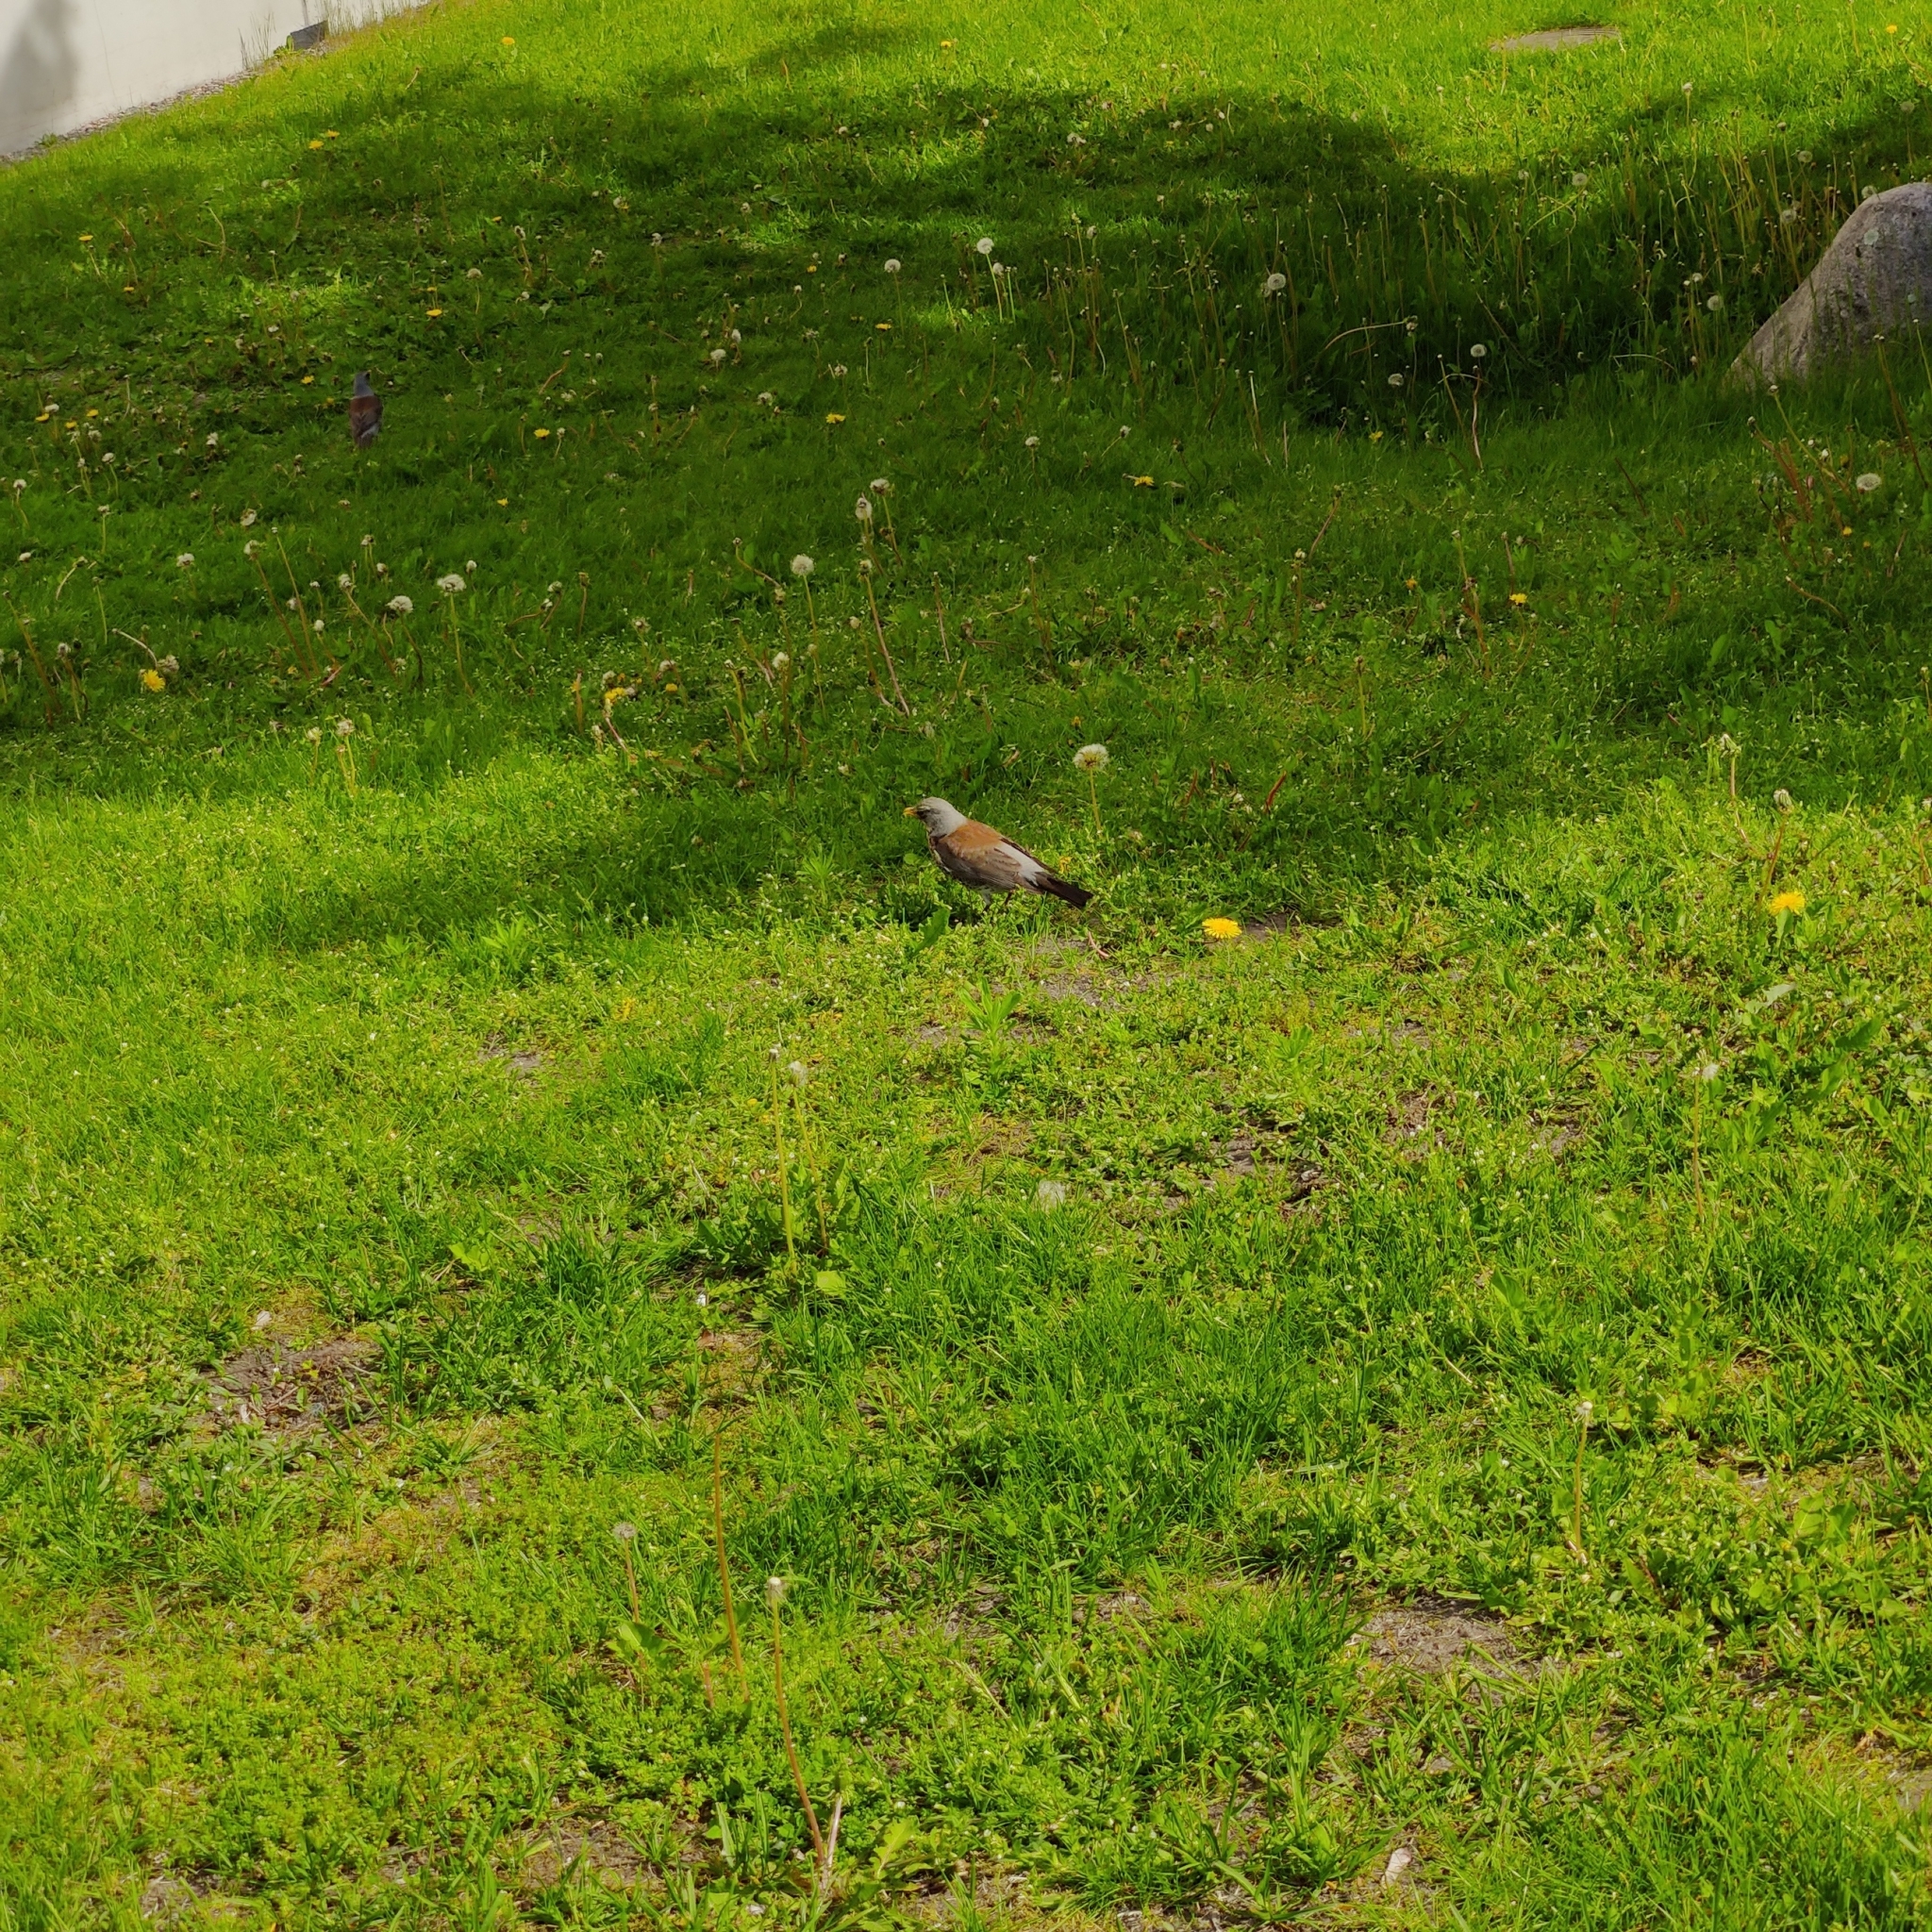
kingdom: Animalia
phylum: Chordata
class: Aves
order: Passeriformes
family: Turdidae
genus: Turdus
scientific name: Turdus pilaris
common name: Fieldfare
